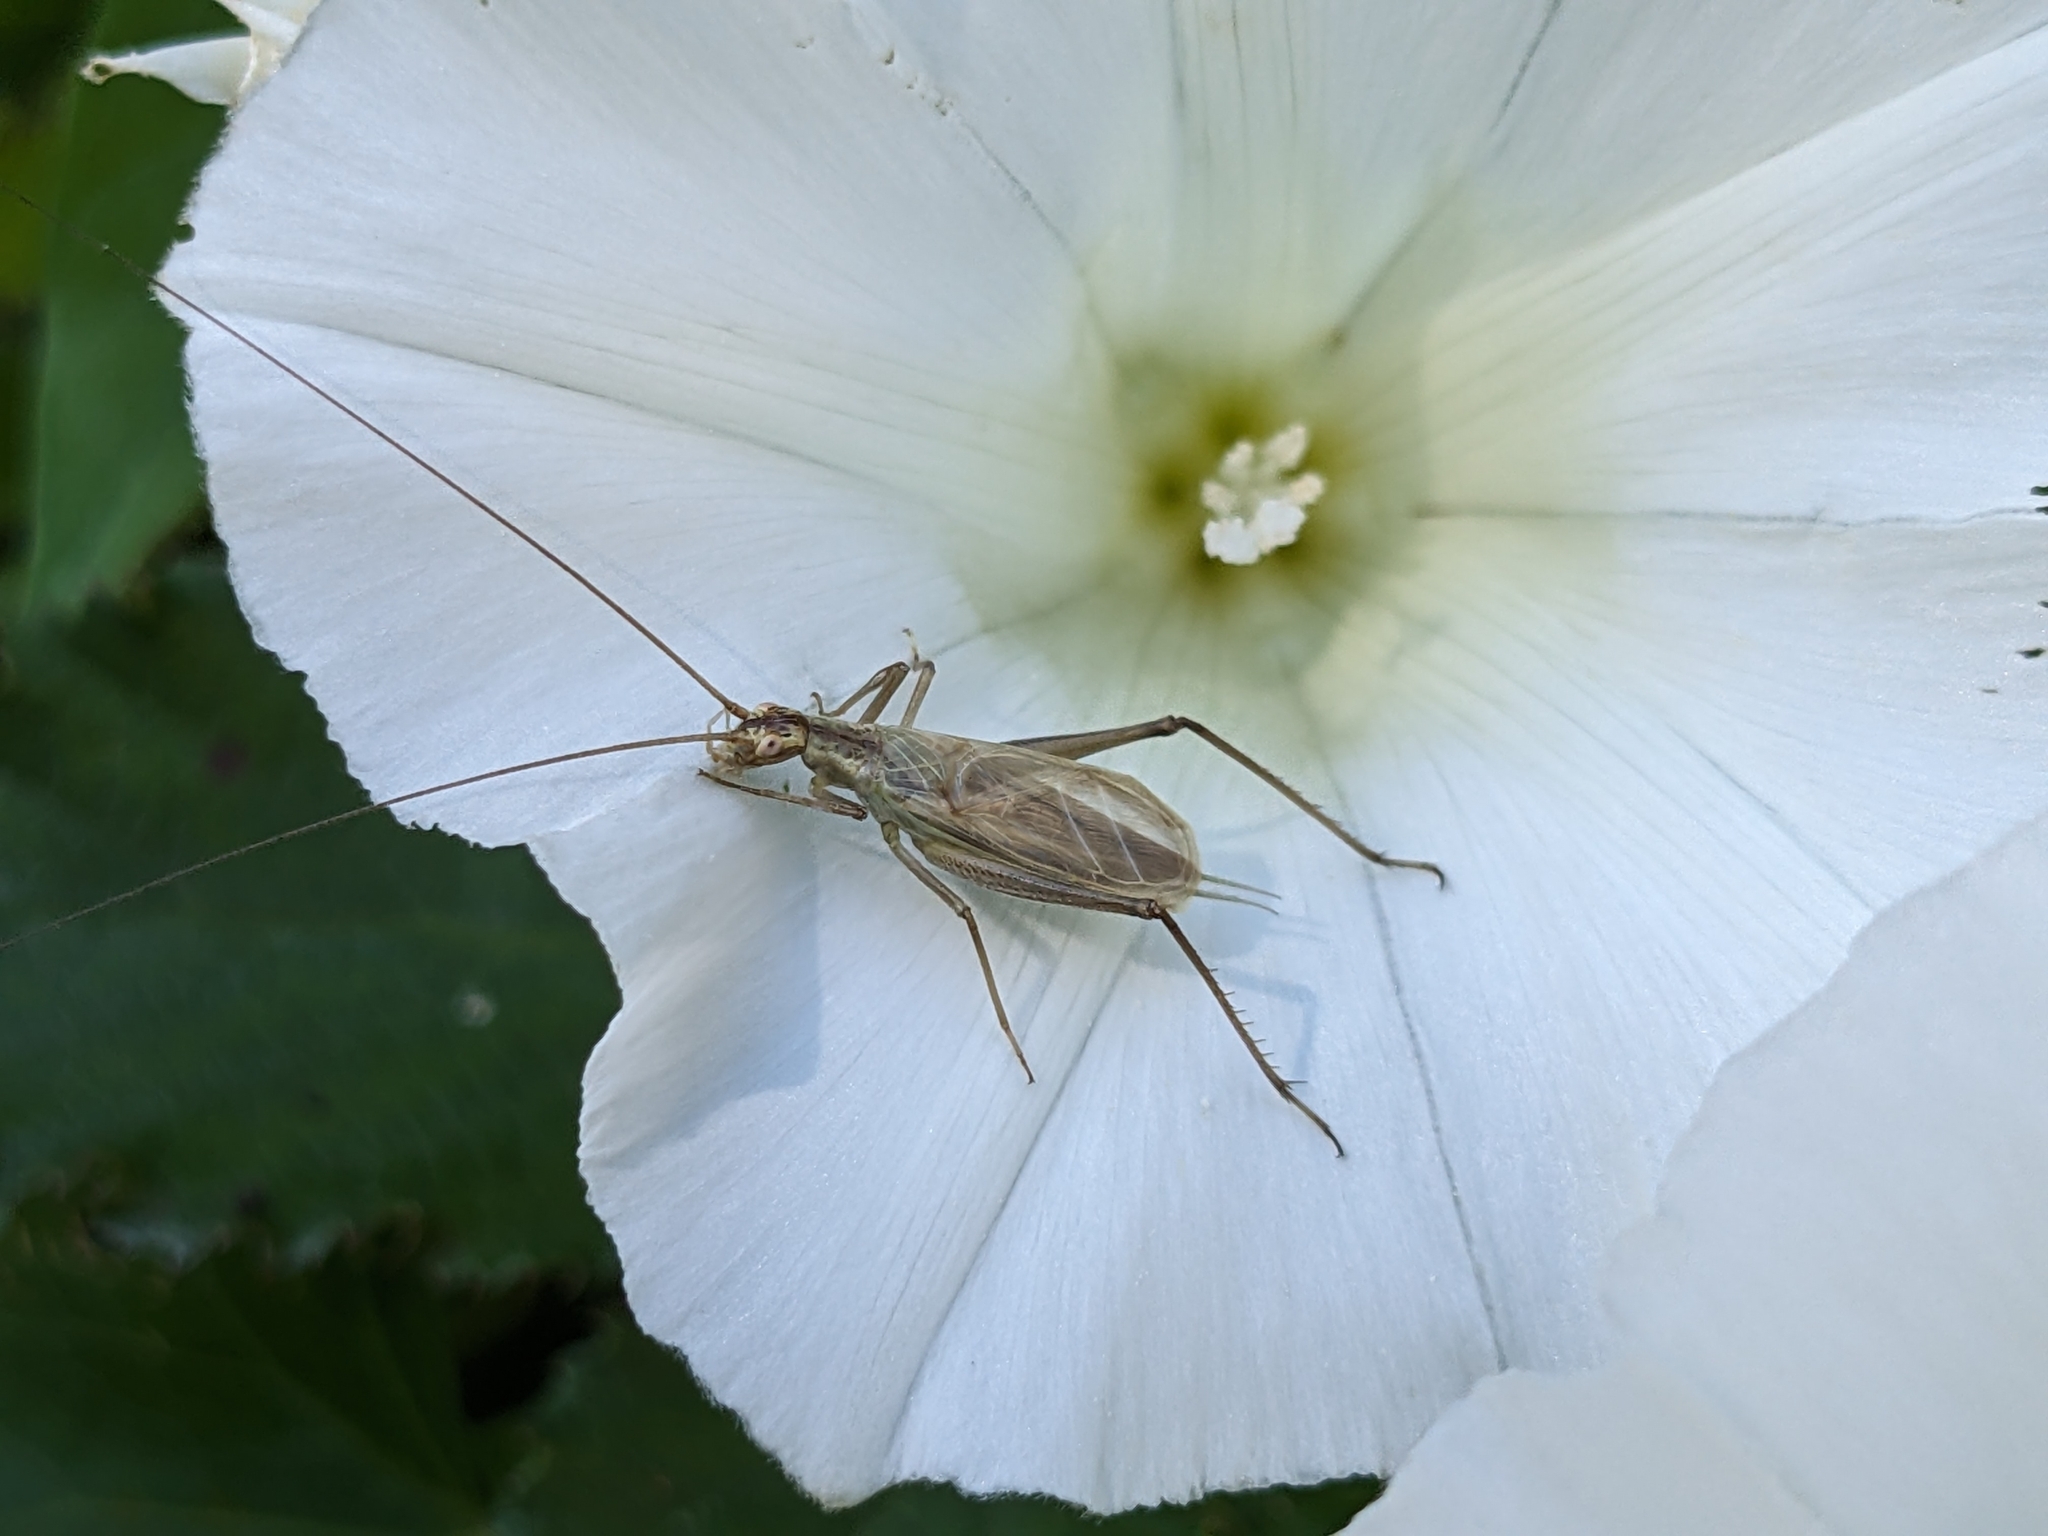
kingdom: Animalia
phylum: Arthropoda
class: Insecta
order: Orthoptera
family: Gryllidae
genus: Oecanthus
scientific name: Oecanthus pellucens
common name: Tree-cricket
